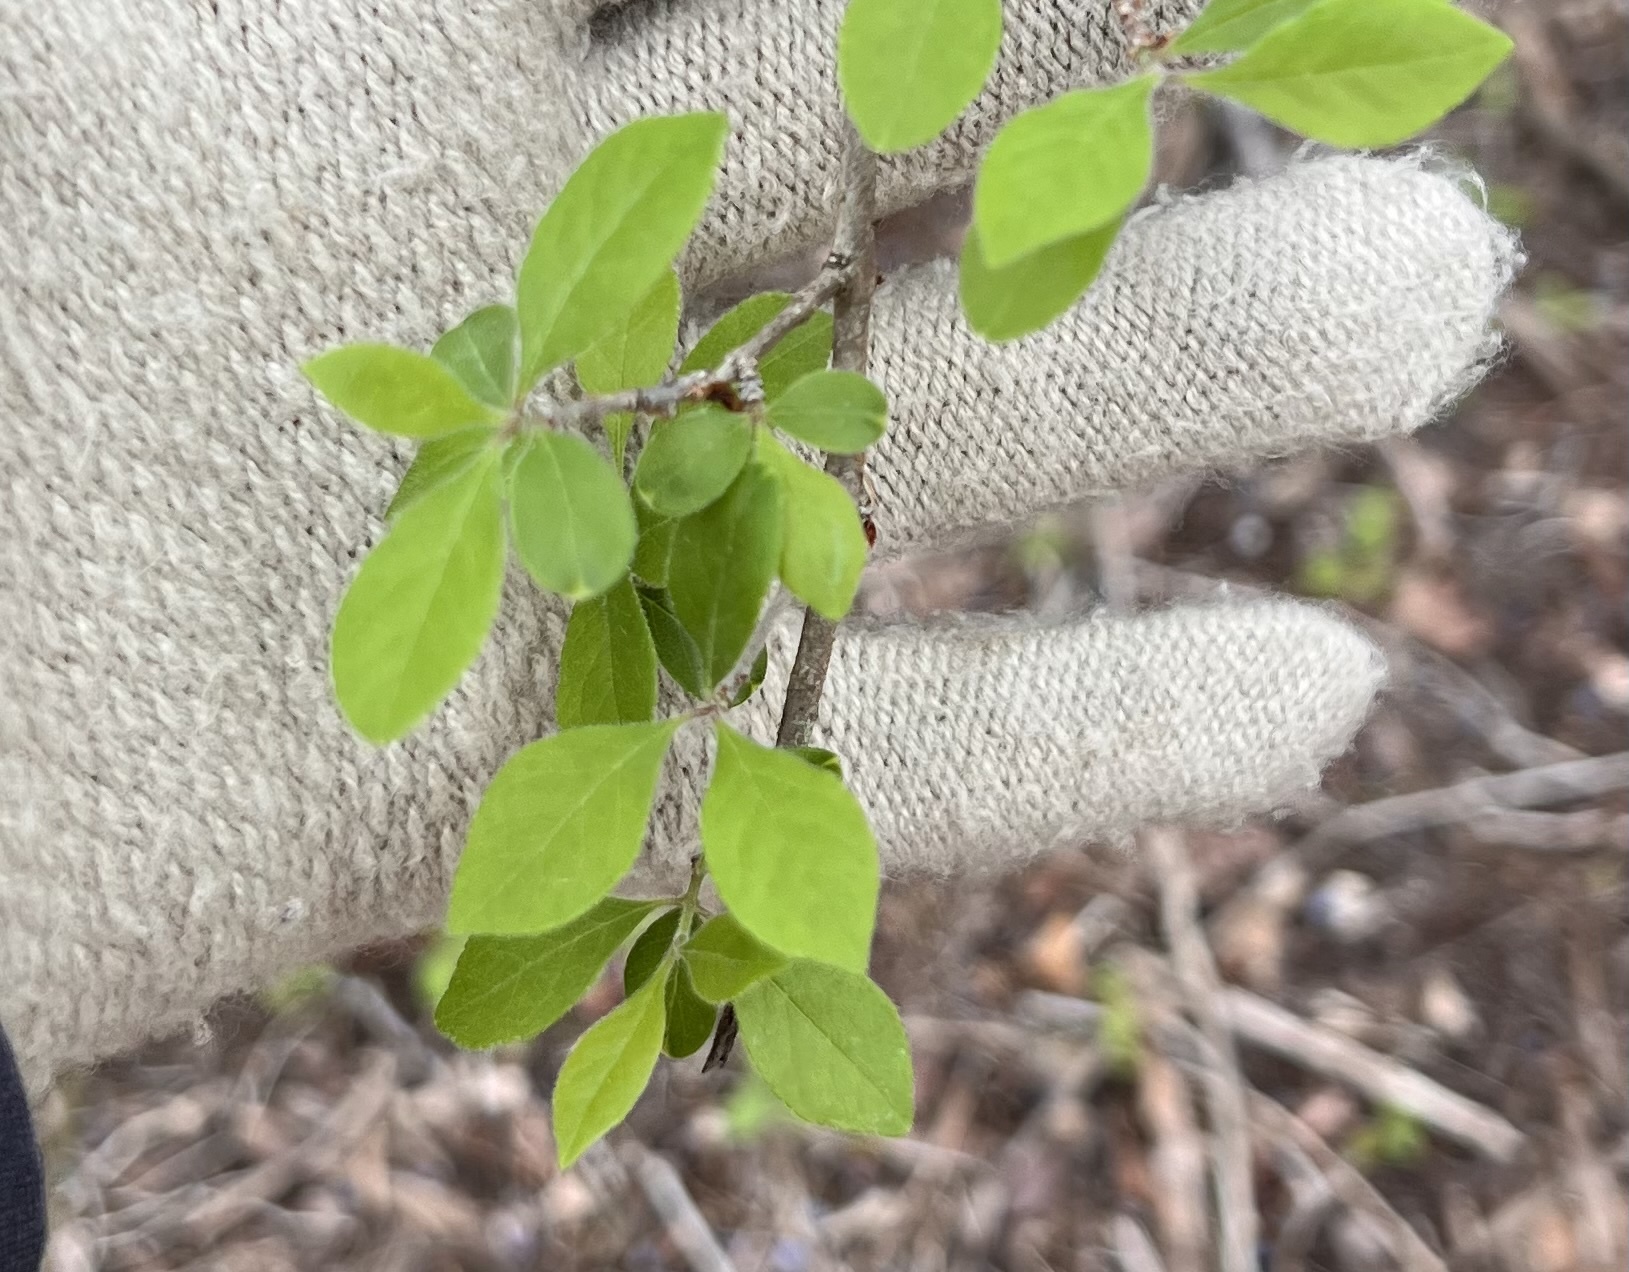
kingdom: Plantae
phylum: Tracheophyta
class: Magnoliopsida
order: Lamiales
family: Oleaceae
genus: Forestiera
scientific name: Forestiera pubescens
